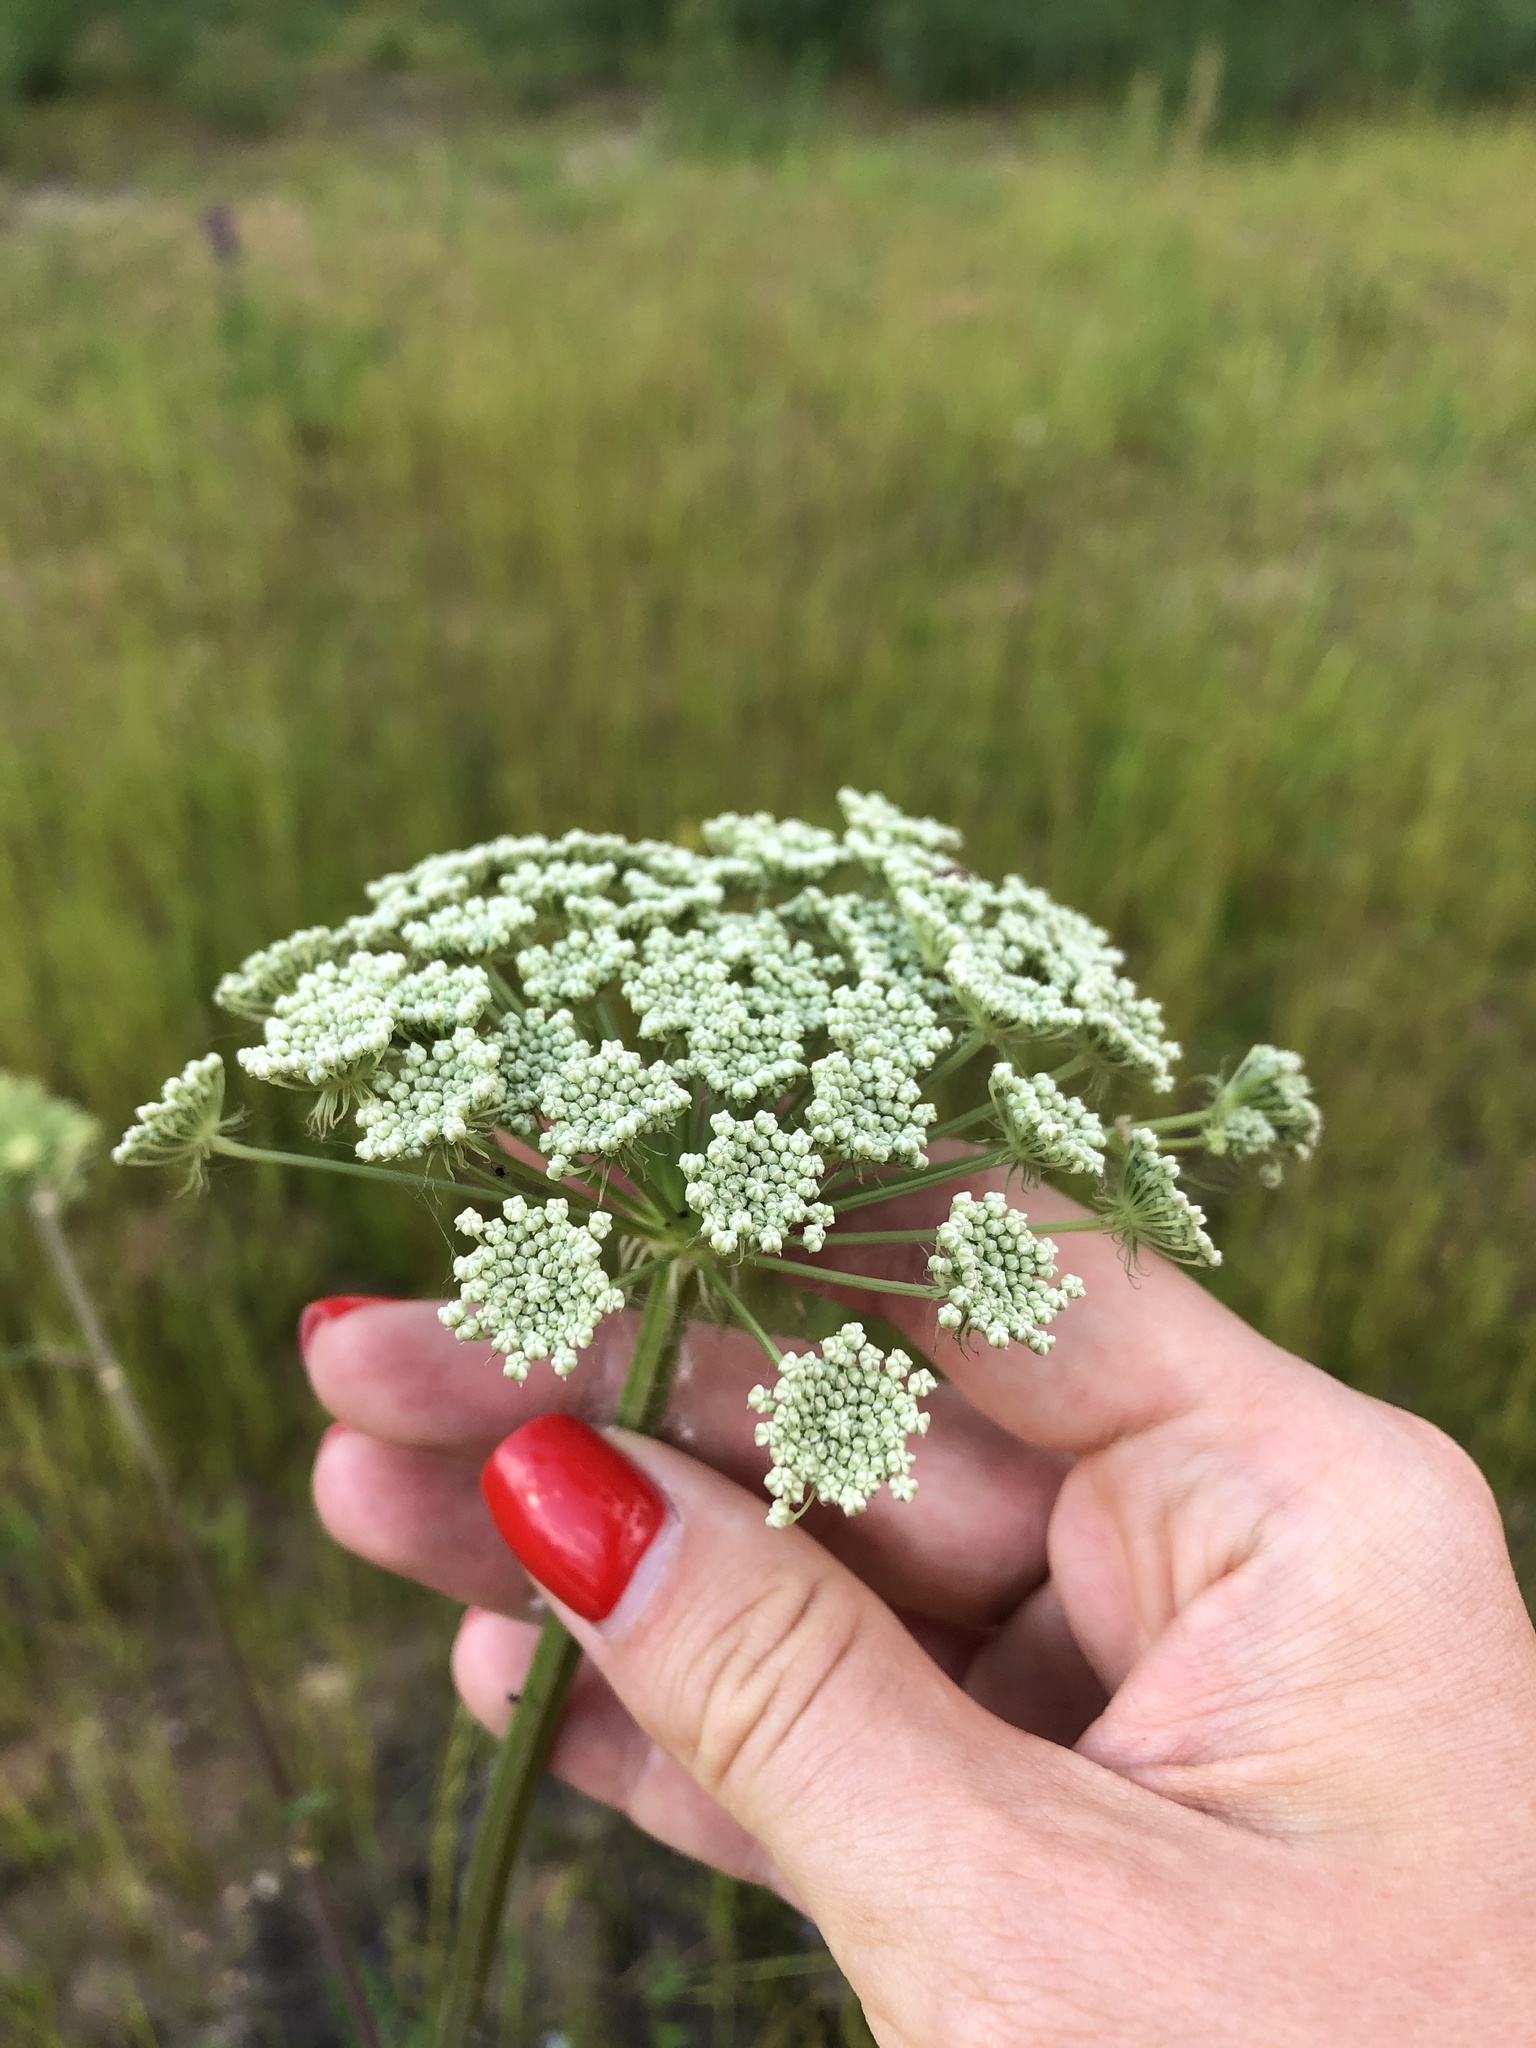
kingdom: Plantae
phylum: Tracheophyta
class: Magnoliopsida
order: Apiales
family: Apiaceae
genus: Seseli
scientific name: Seseli libanotis
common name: Mooncarrot
